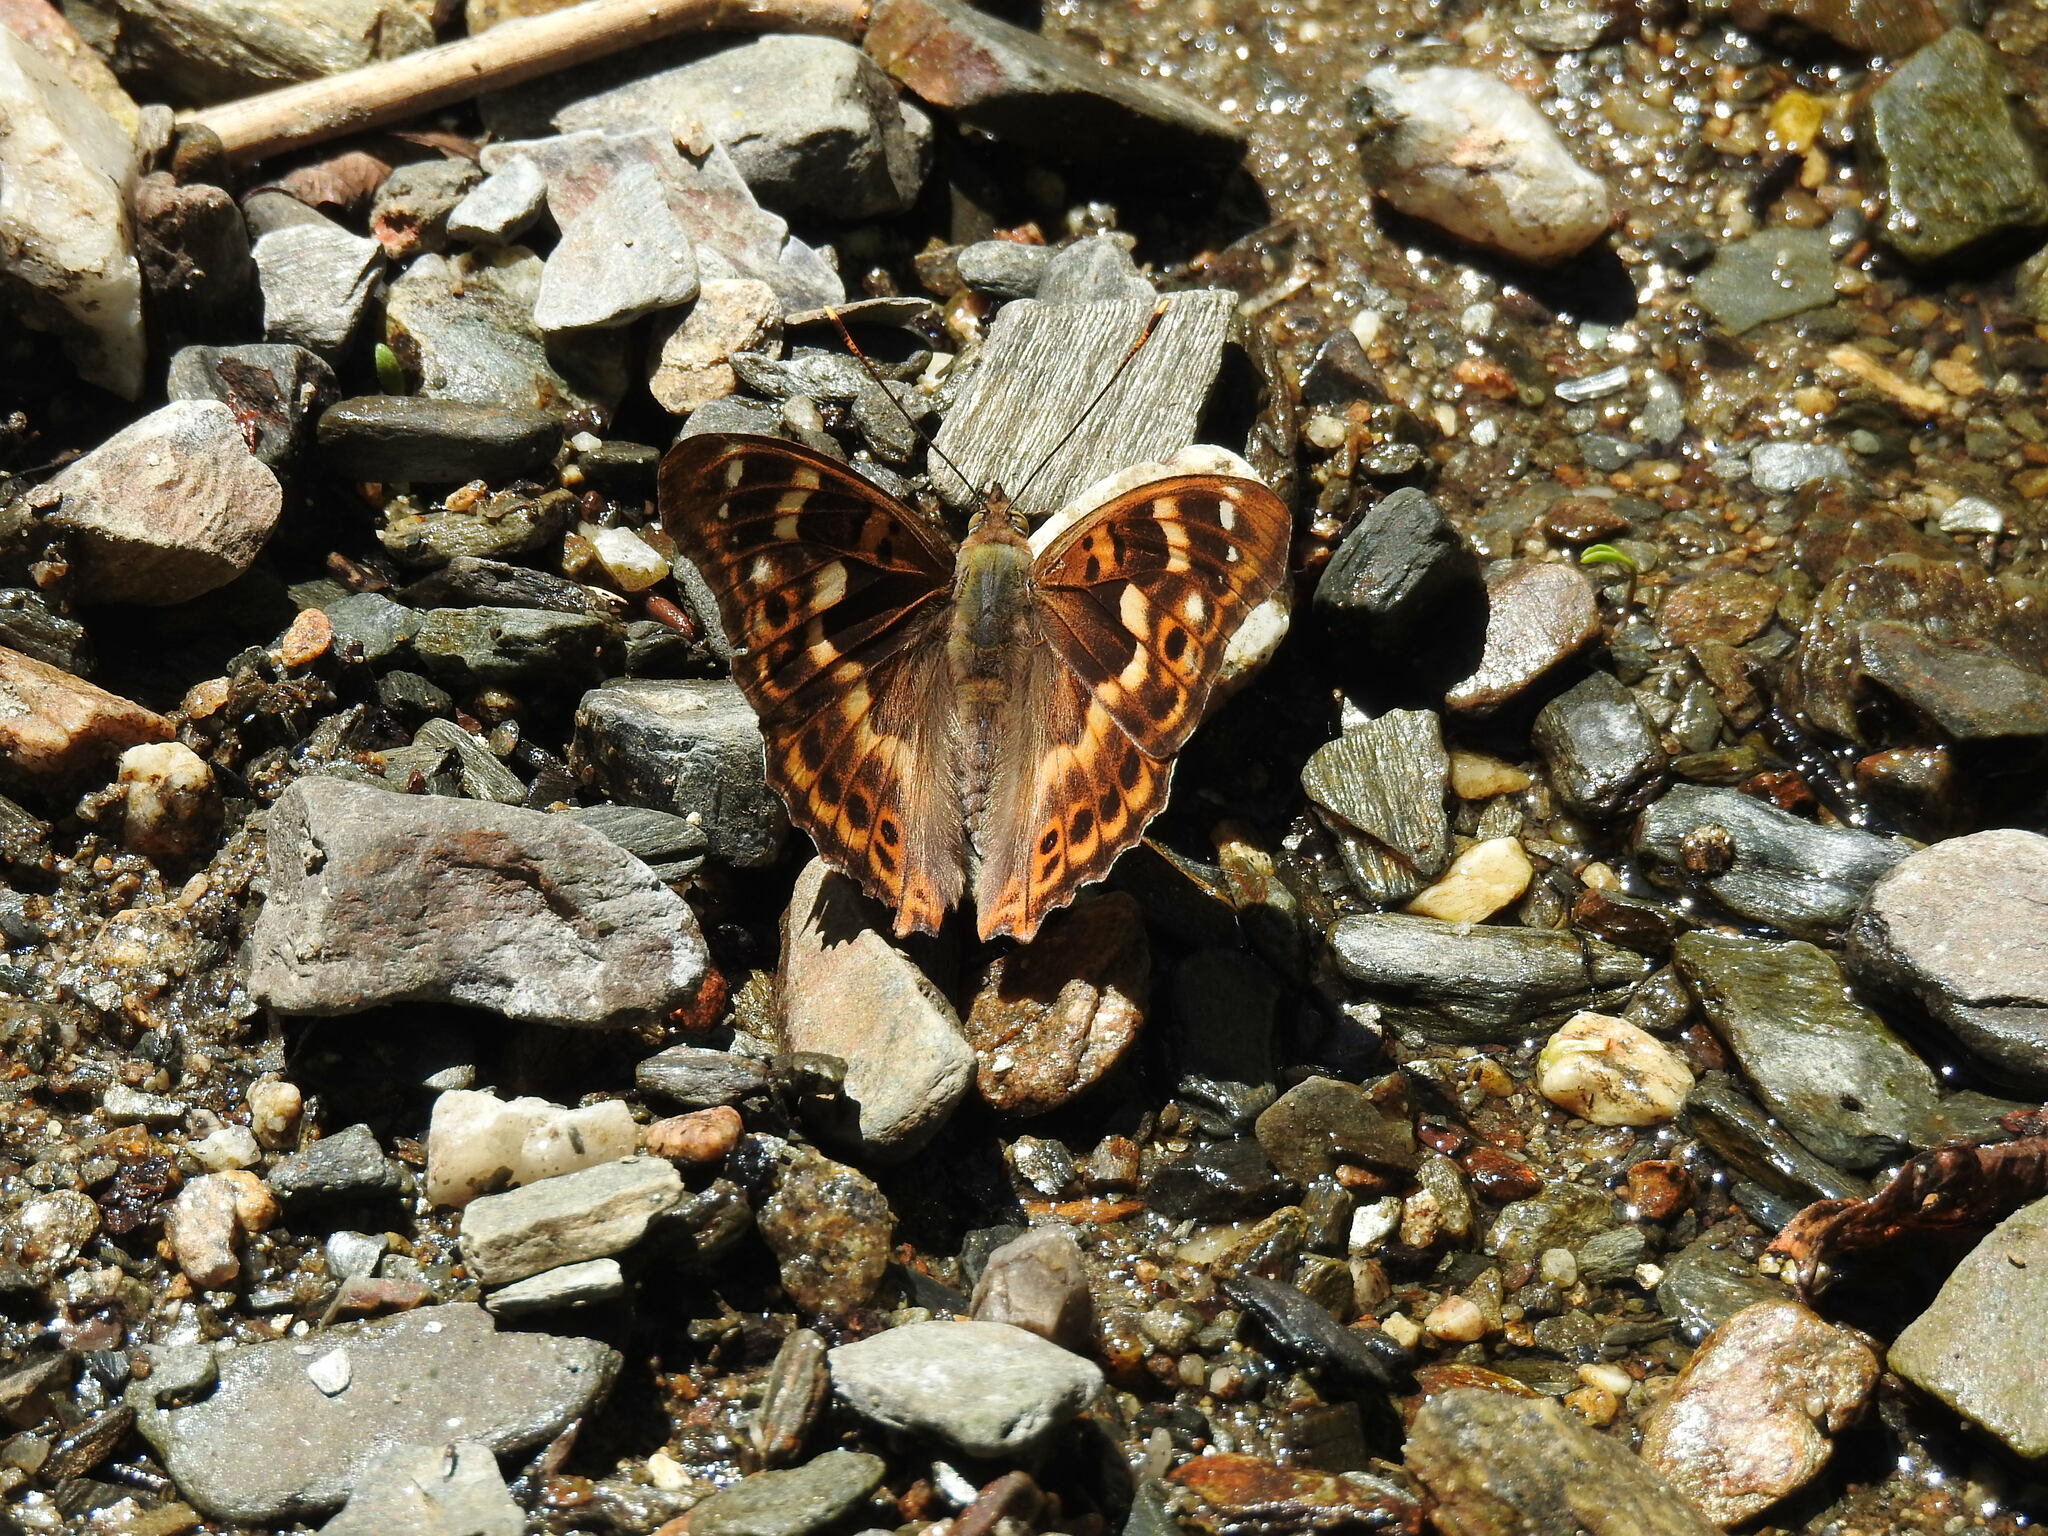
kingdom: Animalia
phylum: Arthropoda
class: Insecta
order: Lepidoptera
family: Nymphalidae
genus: Apatura
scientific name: Apatura ilia
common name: Lesser purple emperor
